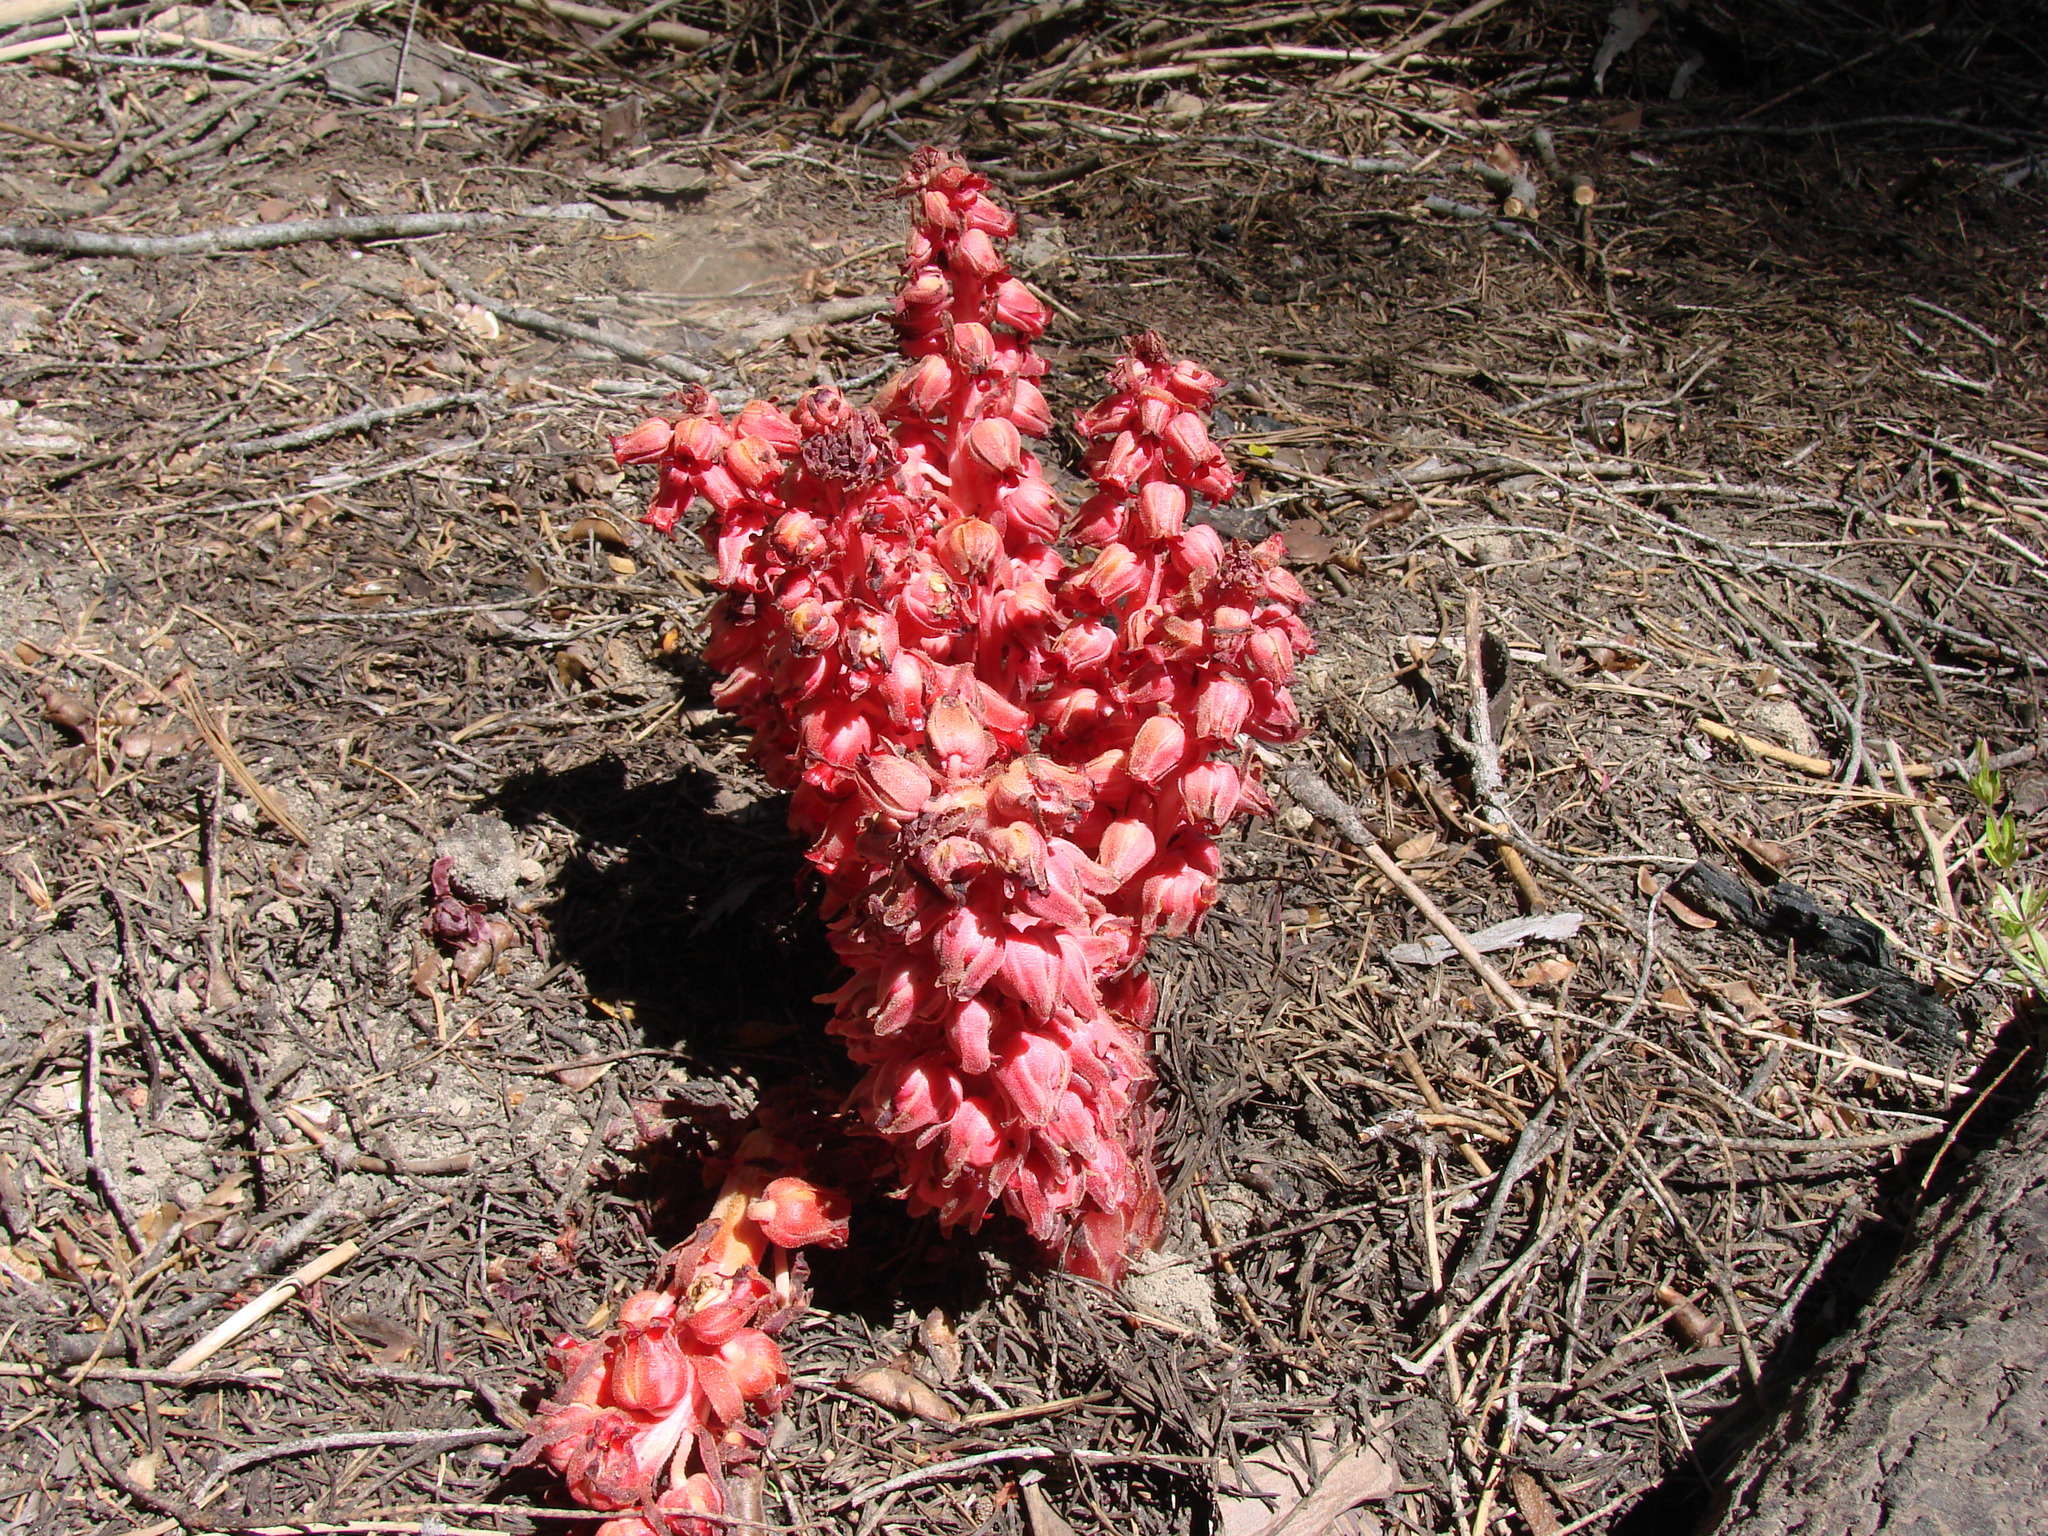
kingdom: Plantae
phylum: Tracheophyta
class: Magnoliopsida
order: Ericales
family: Ericaceae
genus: Sarcodes
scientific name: Sarcodes sanguinea
